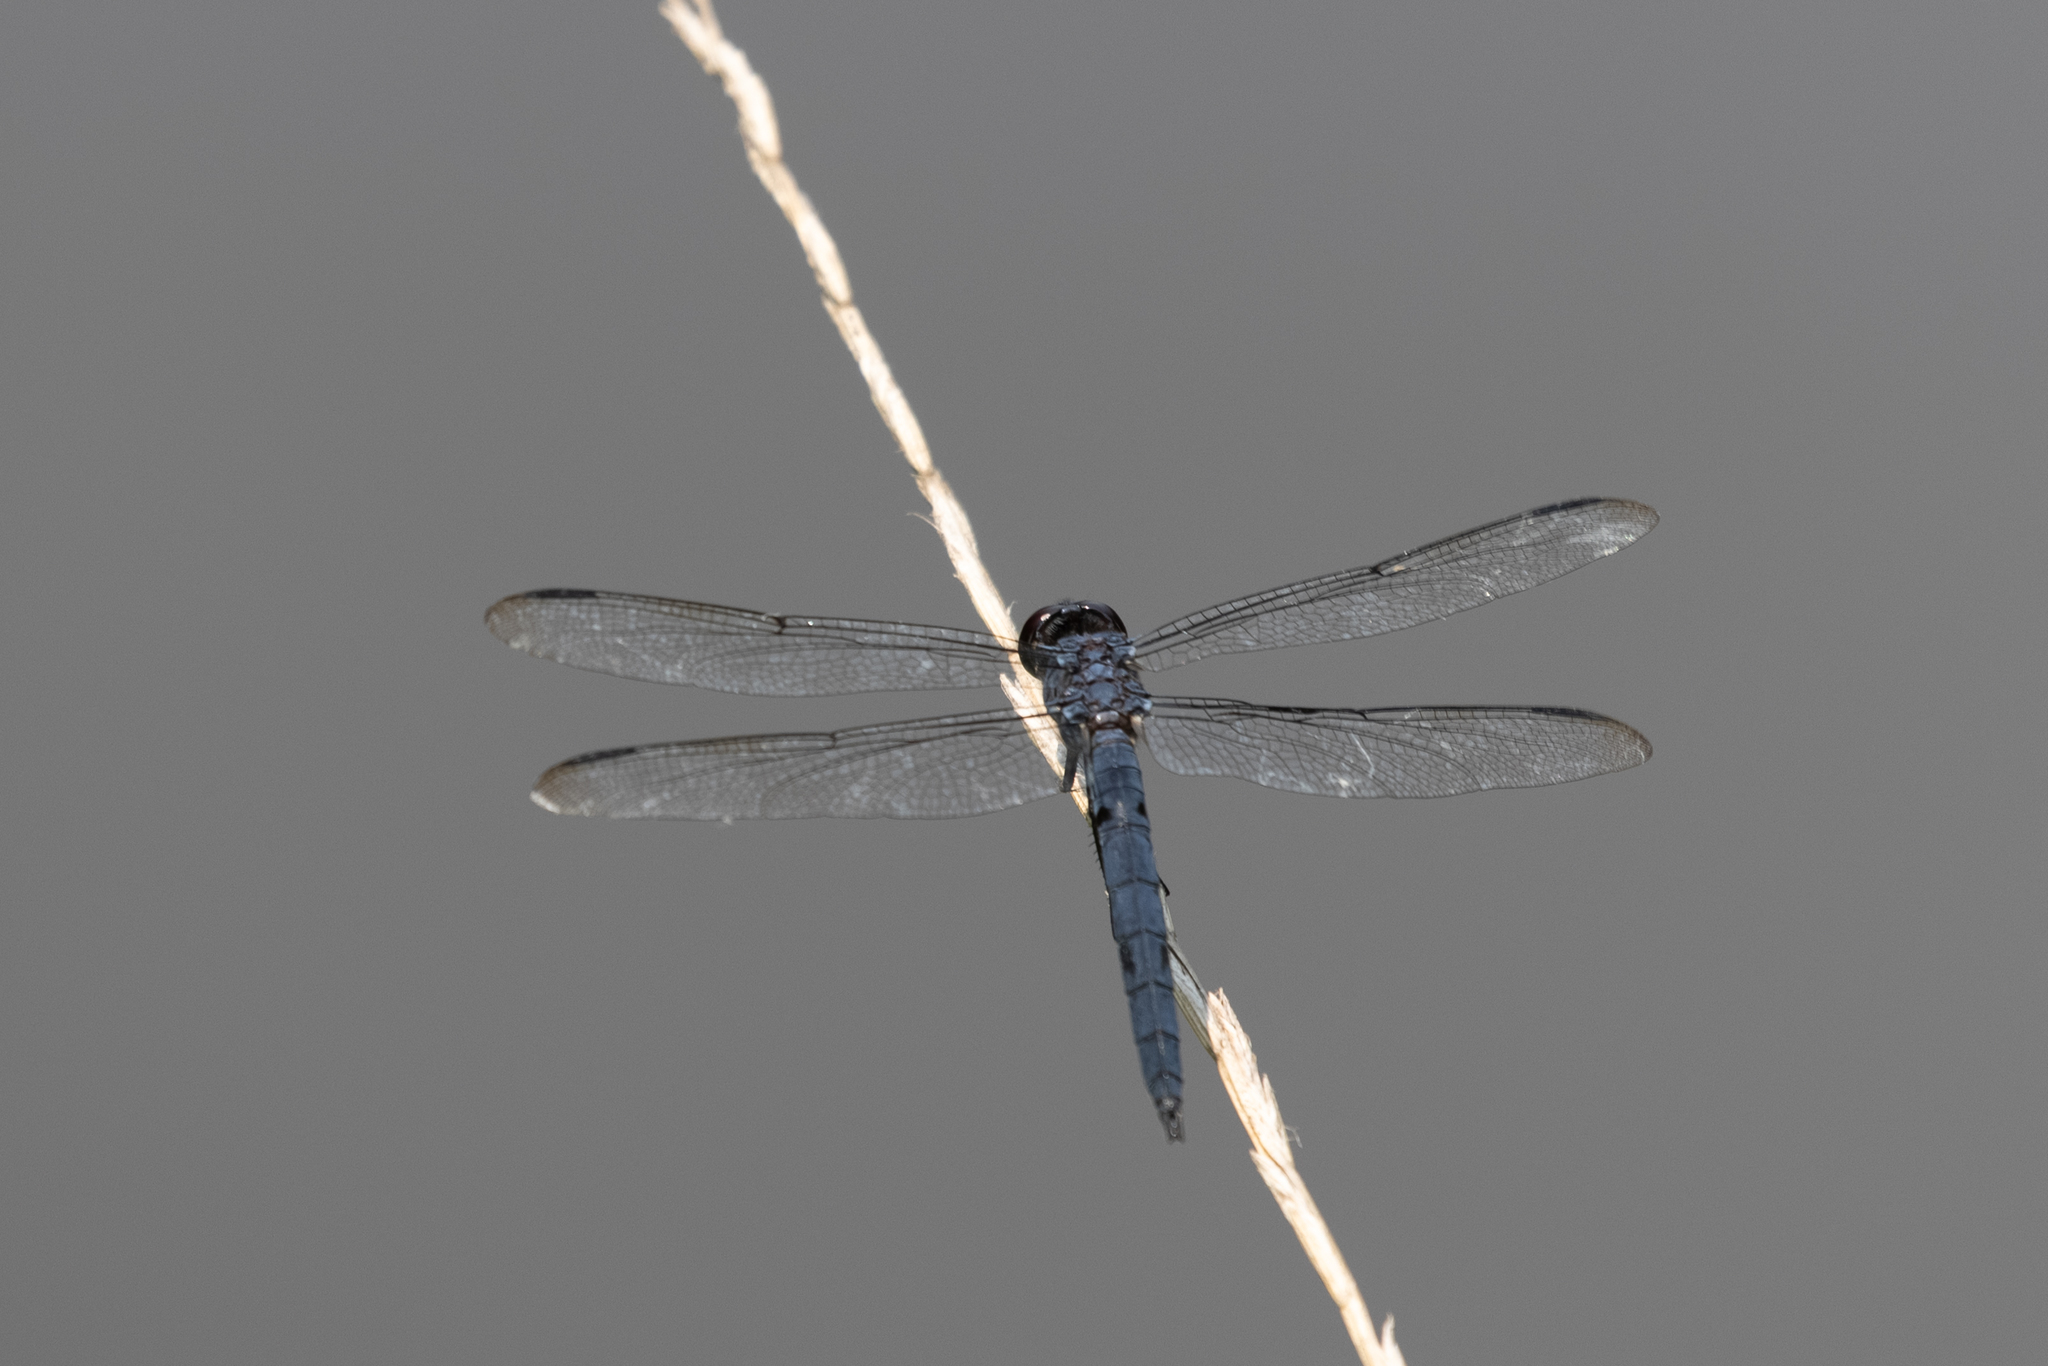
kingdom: Animalia
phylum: Arthropoda
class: Insecta
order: Odonata
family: Libellulidae
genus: Libellula
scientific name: Libellula incesta
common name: Slaty skimmer
